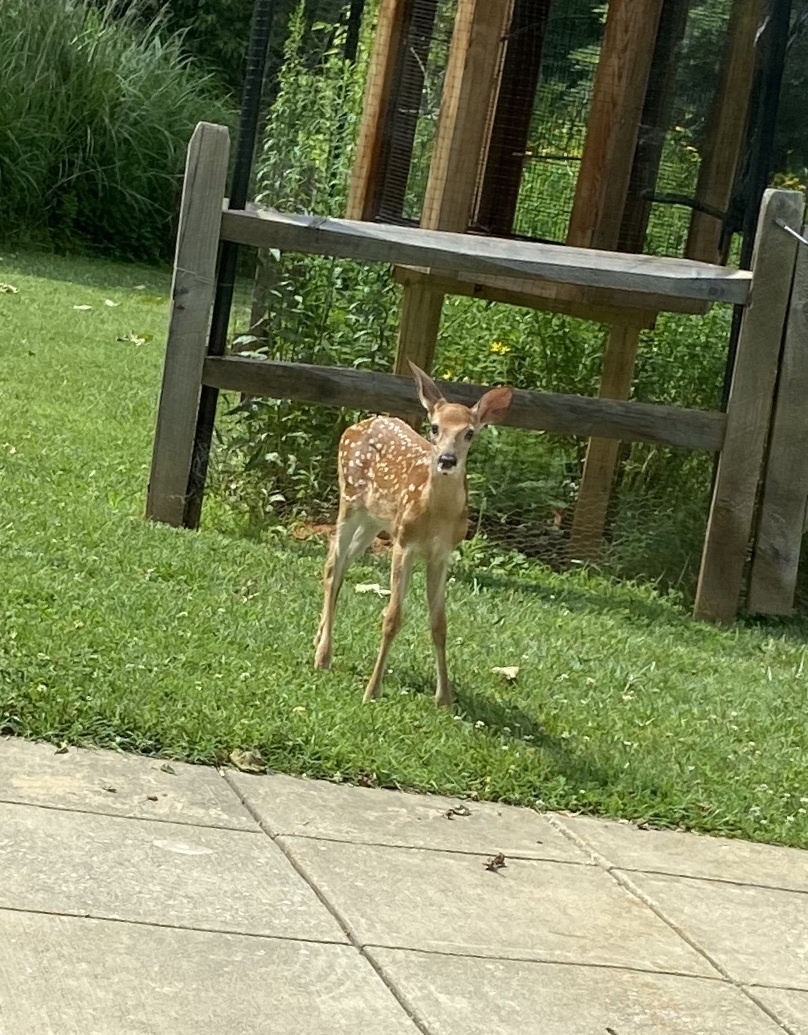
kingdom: Animalia
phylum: Chordata
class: Mammalia
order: Artiodactyla
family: Cervidae
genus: Odocoileus
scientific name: Odocoileus virginianus
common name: White-tailed deer
